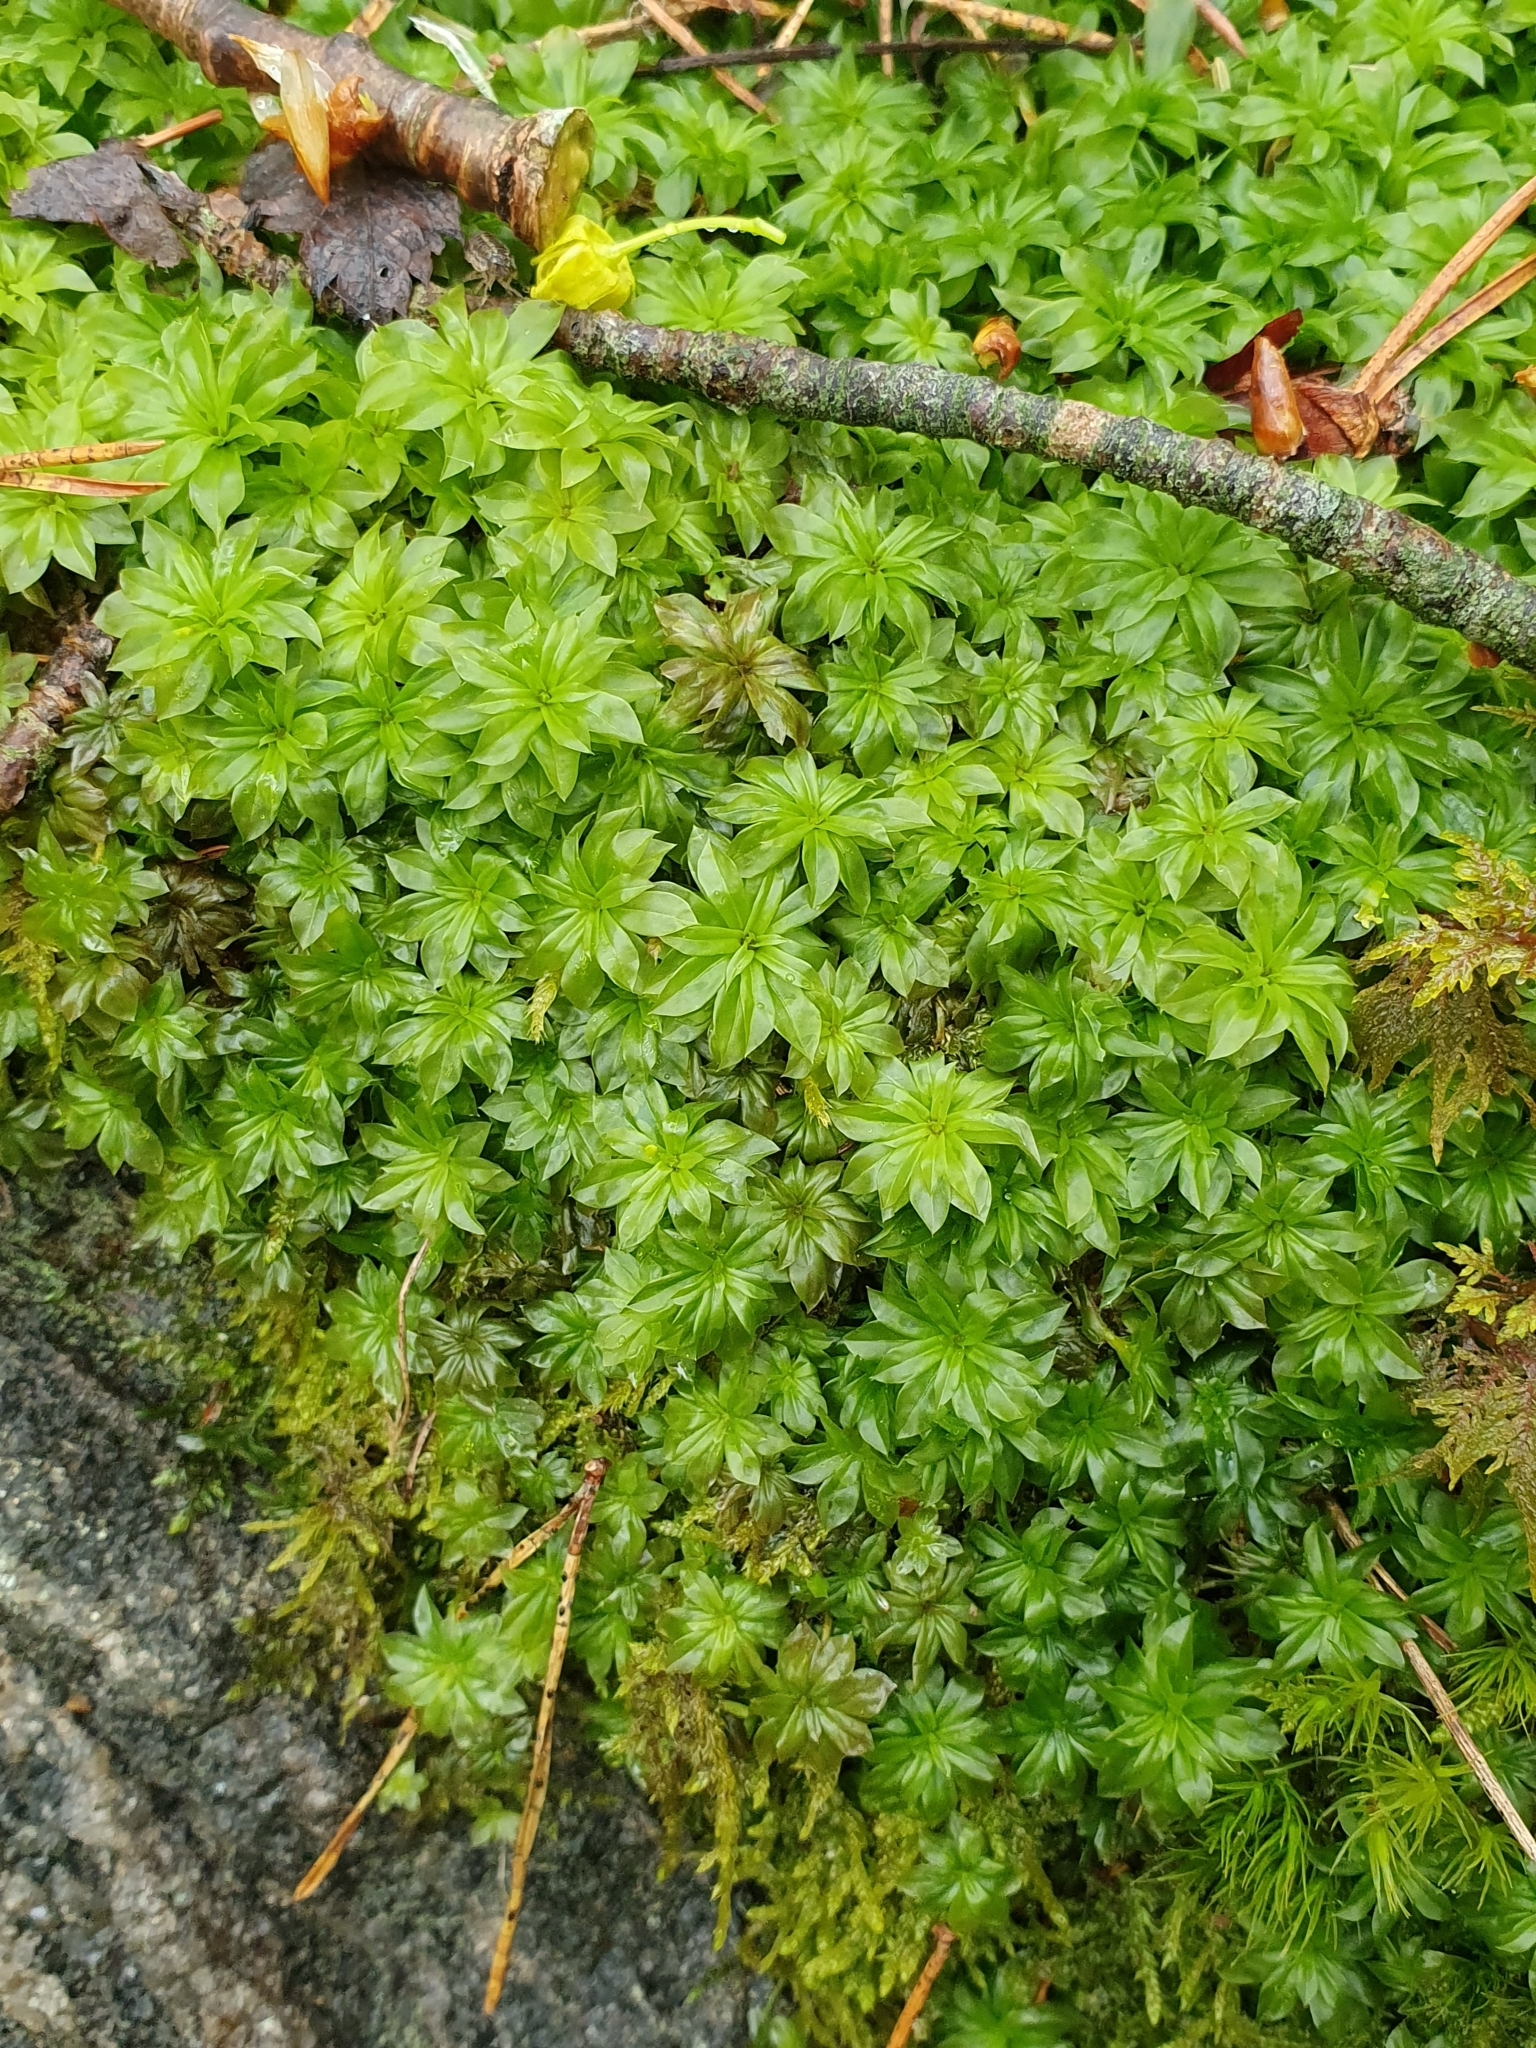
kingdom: Plantae
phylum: Bryophyta
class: Bryopsida
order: Bryales
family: Bryaceae
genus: Rhodobryum
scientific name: Rhodobryum roseum
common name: Rose-moss
